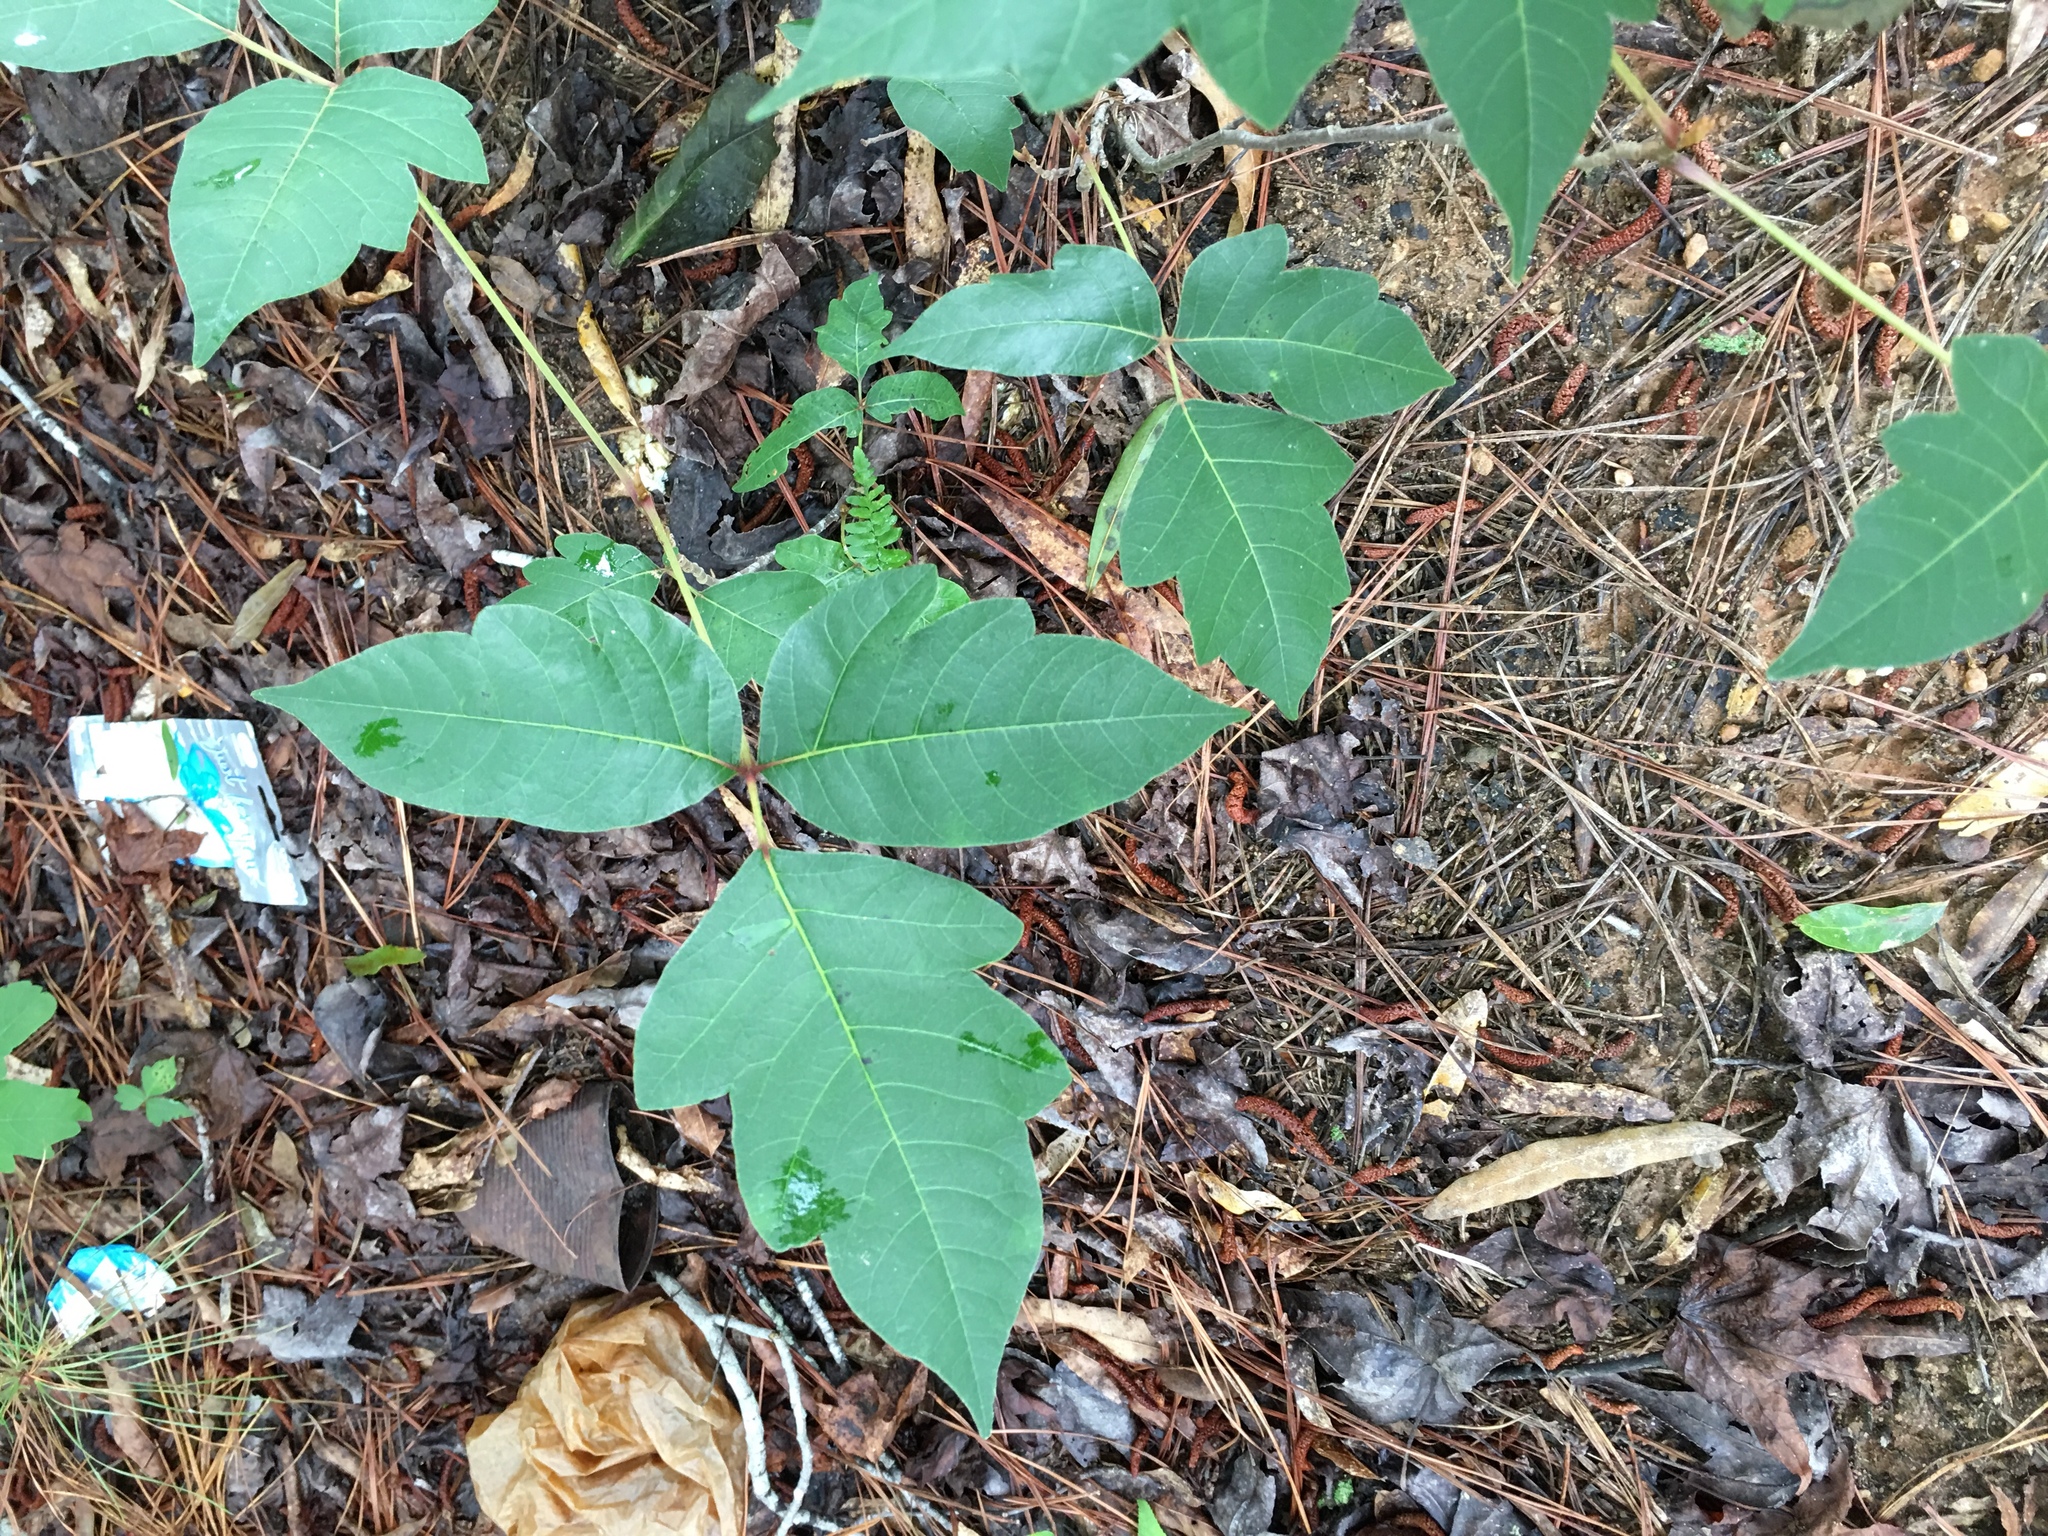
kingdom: Plantae
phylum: Tracheophyta
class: Magnoliopsida
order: Sapindales
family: Anacardiaceae
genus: Toxicodendron
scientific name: Toxicodendron radicans
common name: Poison ivy
